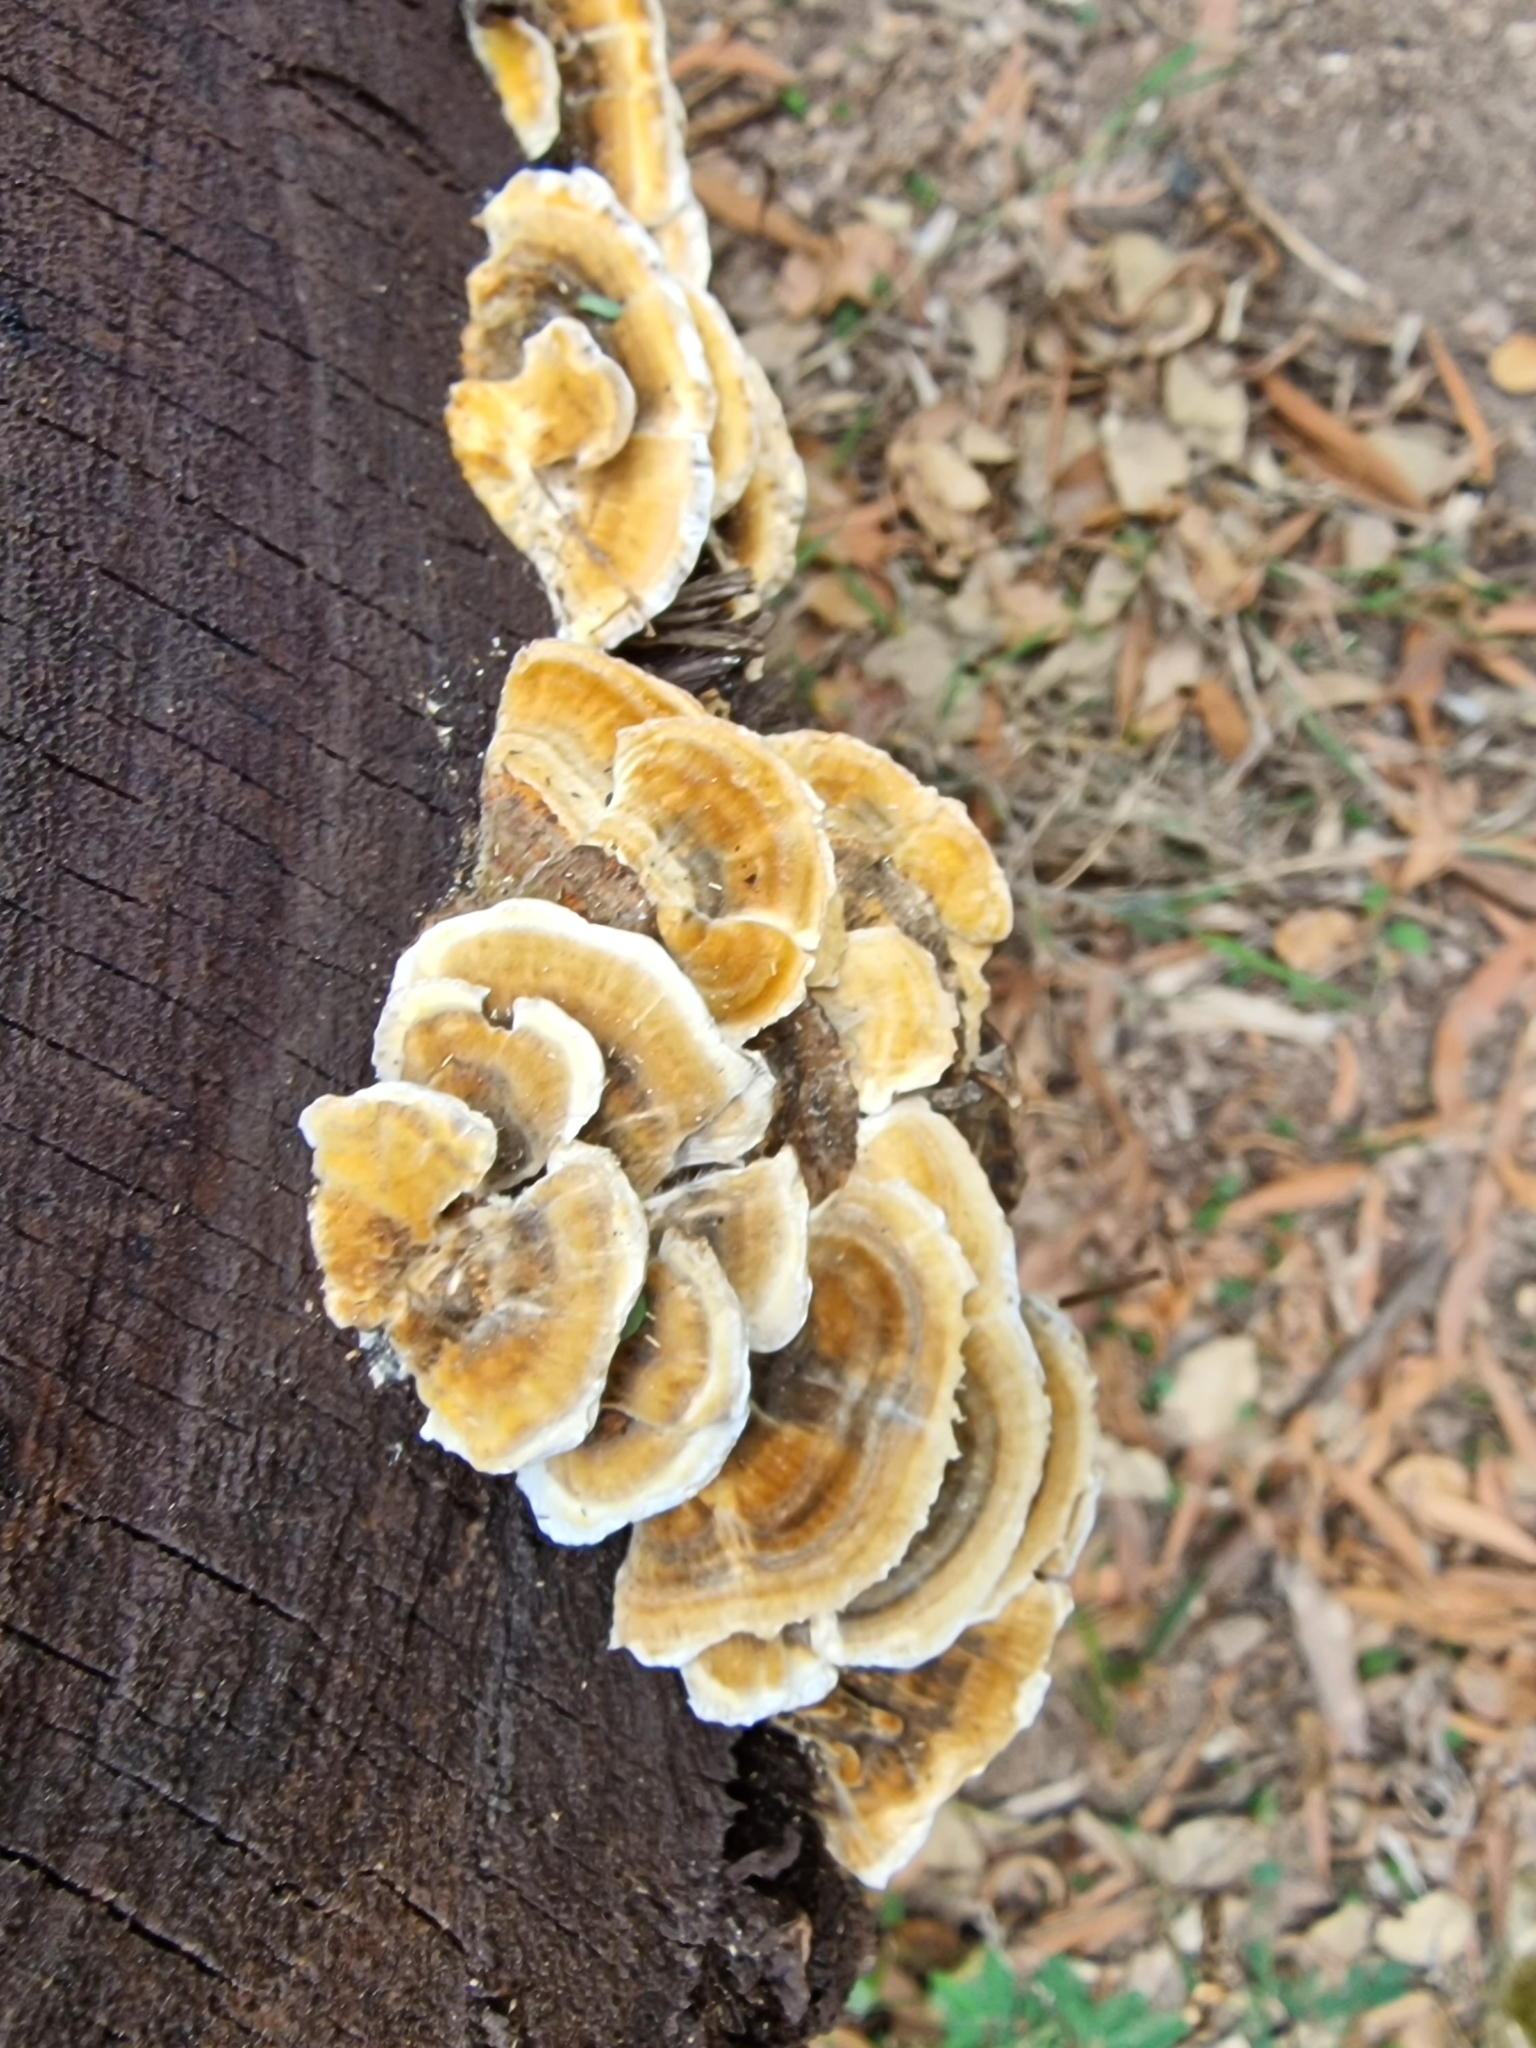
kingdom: Fungi
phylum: Basidiomycota
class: Agaricomycetes
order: Polyporales
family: Polyporaceae
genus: Trametes
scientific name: Trametes versicolor
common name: Turkeytail
